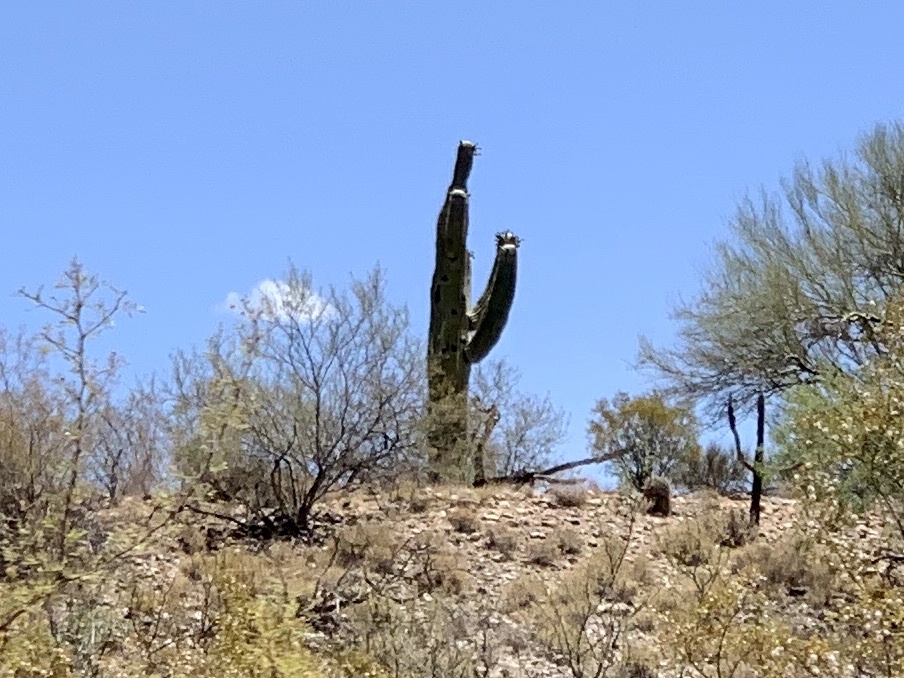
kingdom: Plantae
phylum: Tracheophyta
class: Magnoliopsida
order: Caryophyllales
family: Cactaceae
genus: Carnegiea
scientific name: Carnegiea gigantea
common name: Saguaro
